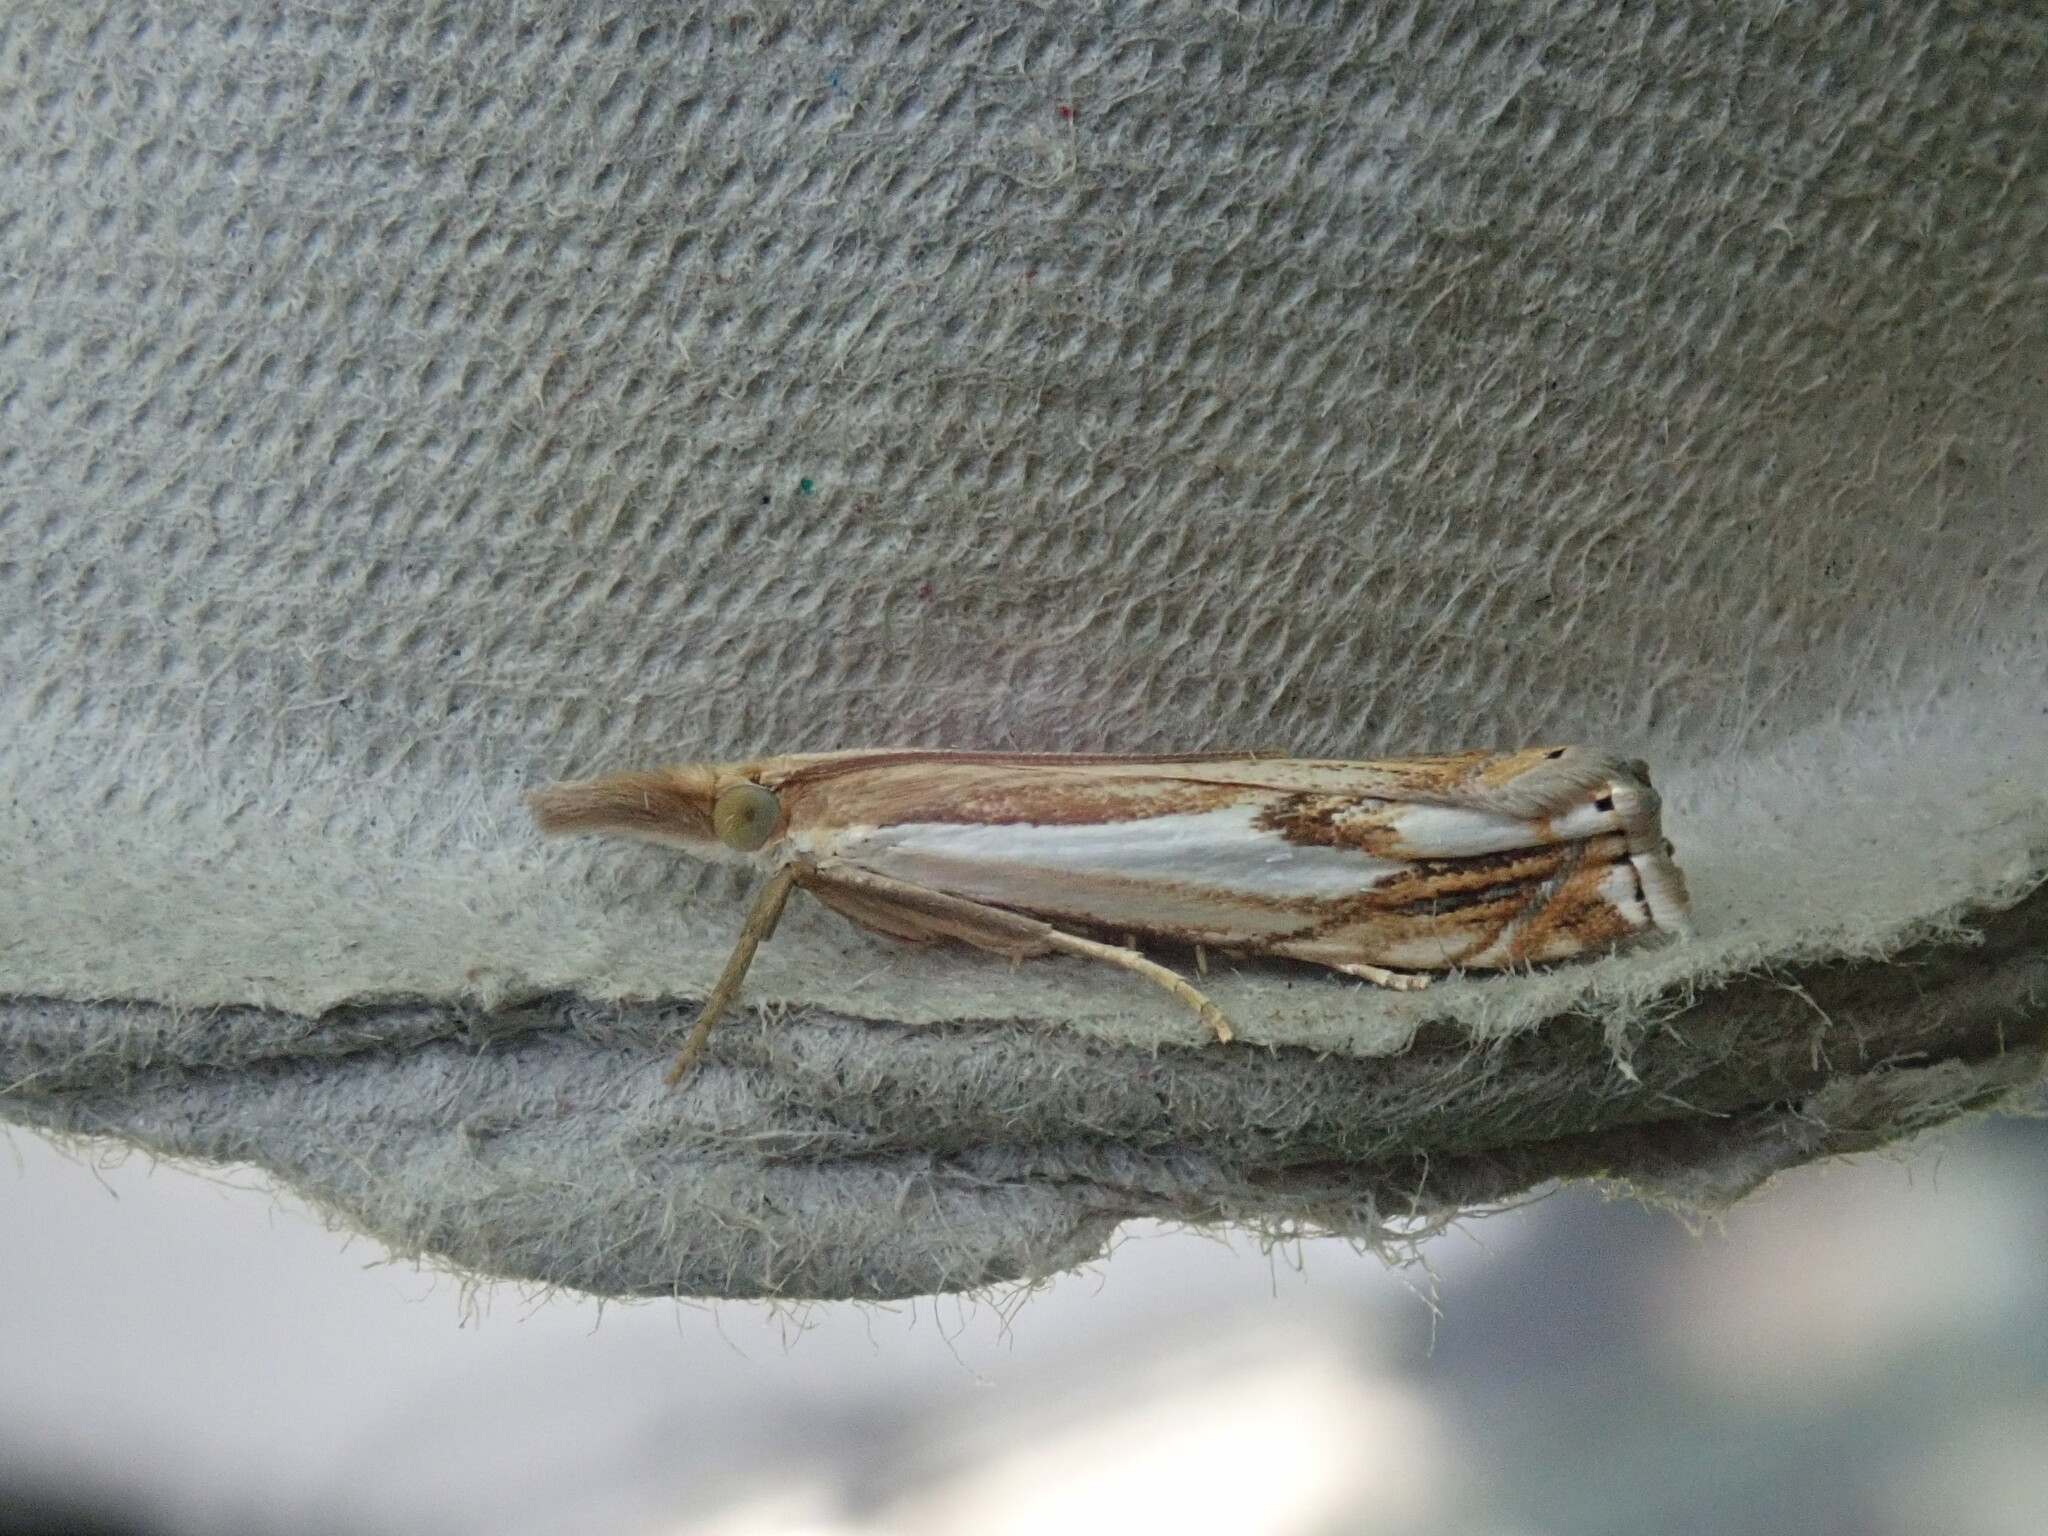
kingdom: Animalia
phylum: Arthropoda
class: Insecta
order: Lepidoptera
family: Crambidae
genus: Crambus
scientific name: Crambus agitatellus
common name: Double-banded grass-veneer
